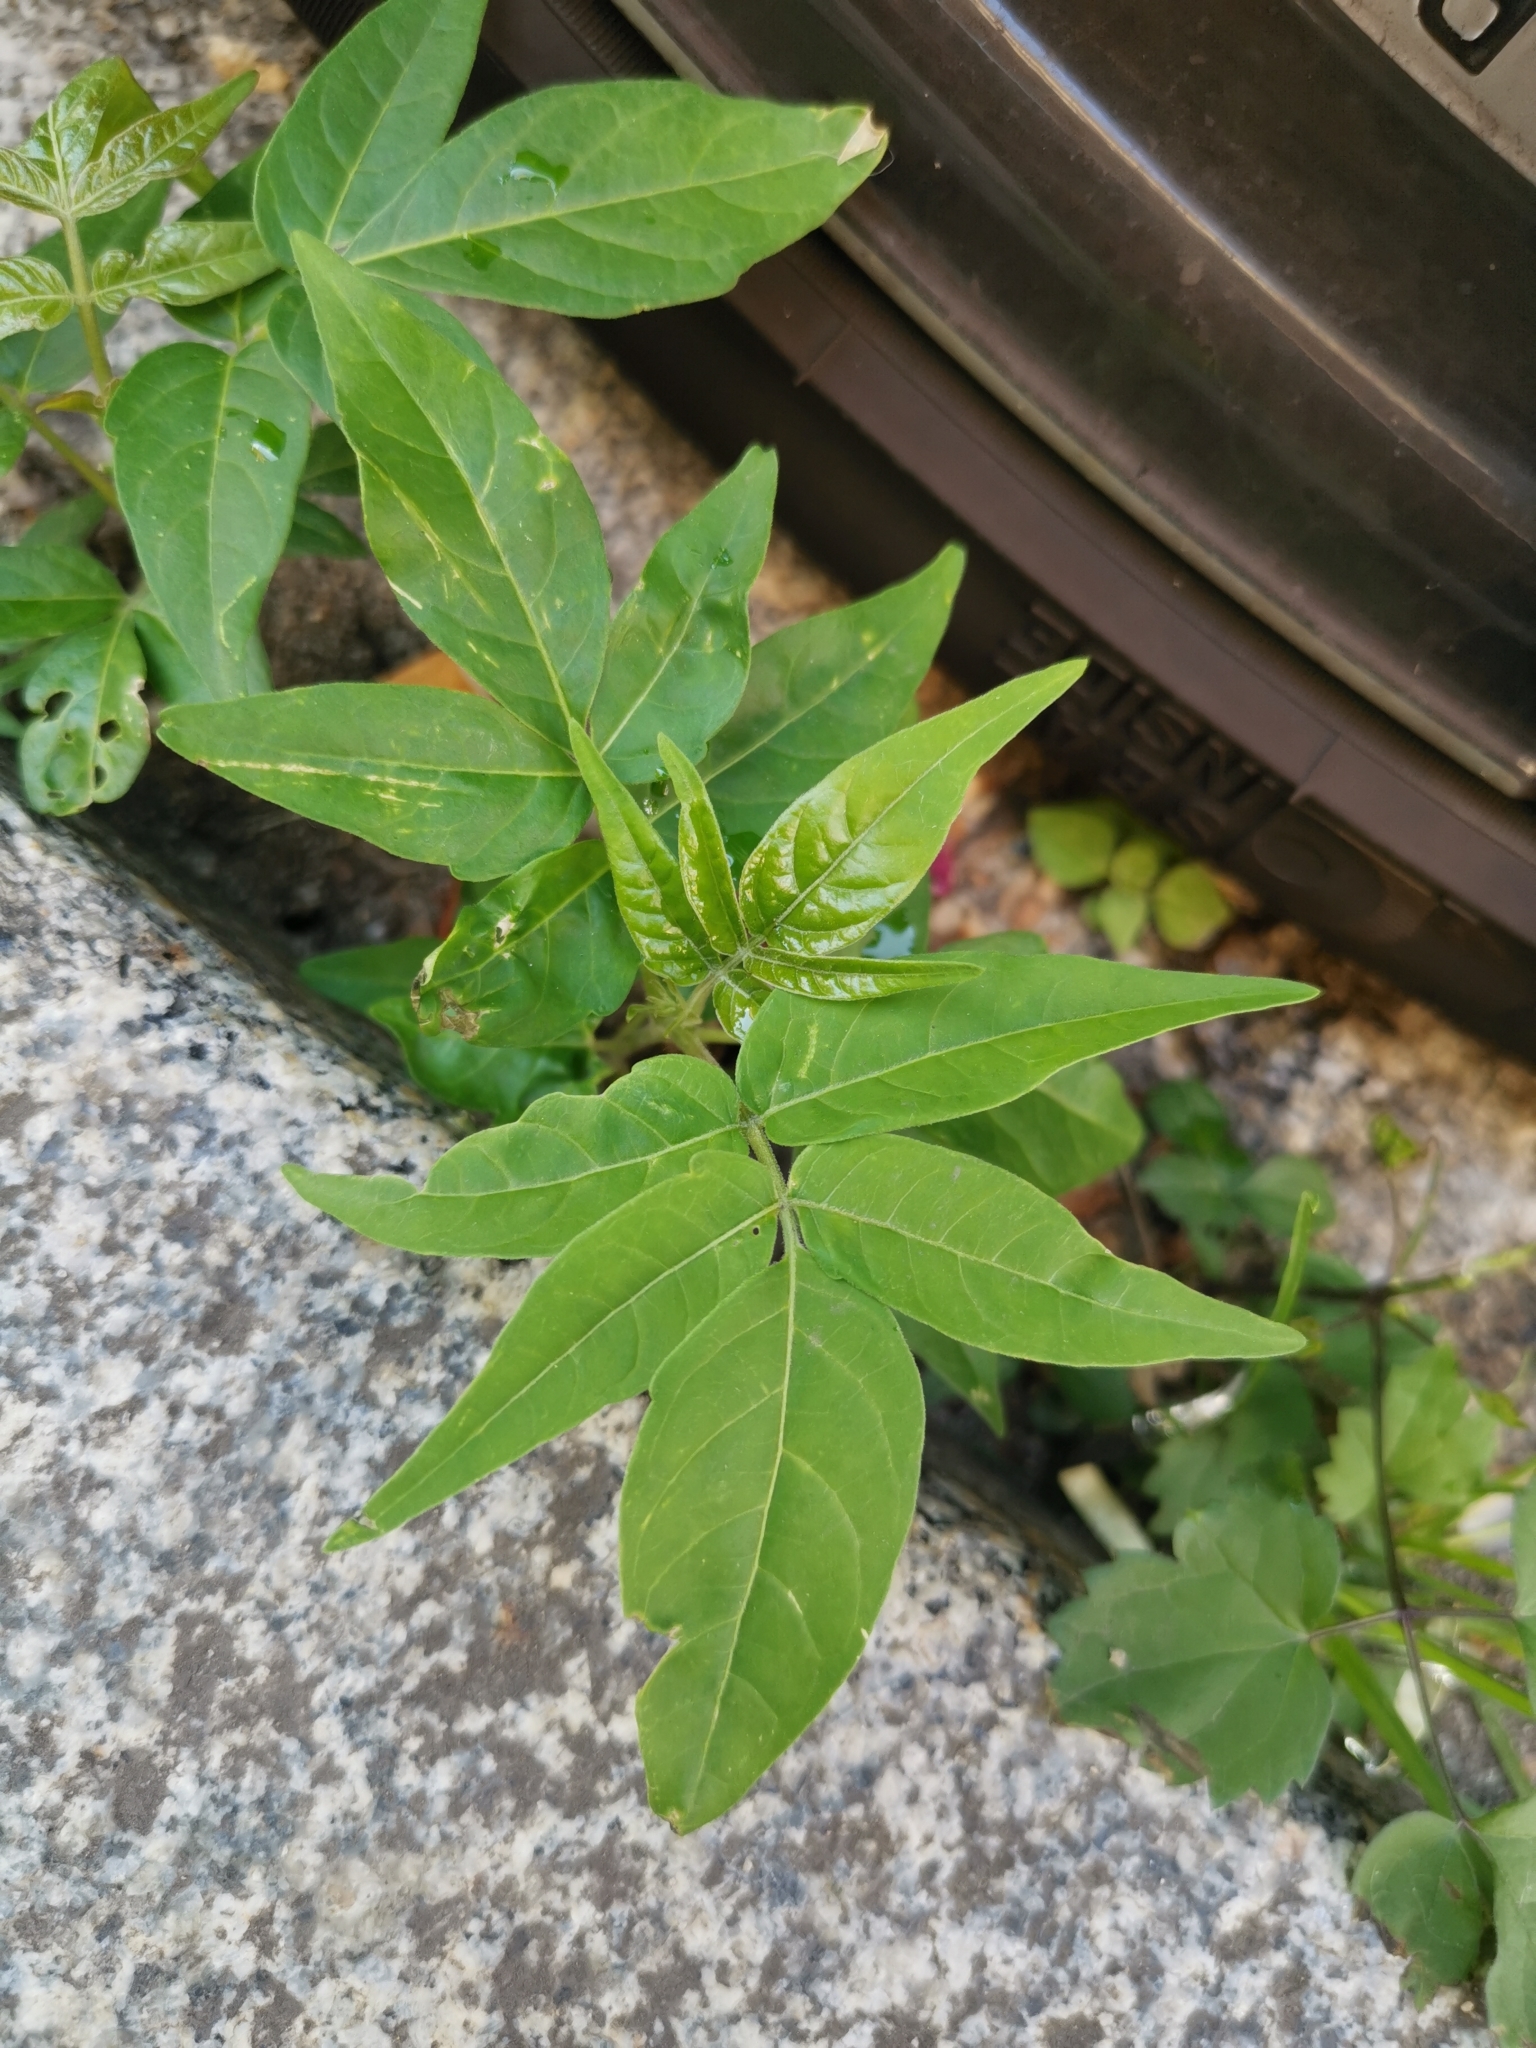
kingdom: Plantae
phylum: Tracheophyta
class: Magnoliopsida
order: Sapindales
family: Simaroubaceae
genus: Ailanthus
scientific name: Ailanthus altissima
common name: Tree-of-heaven
